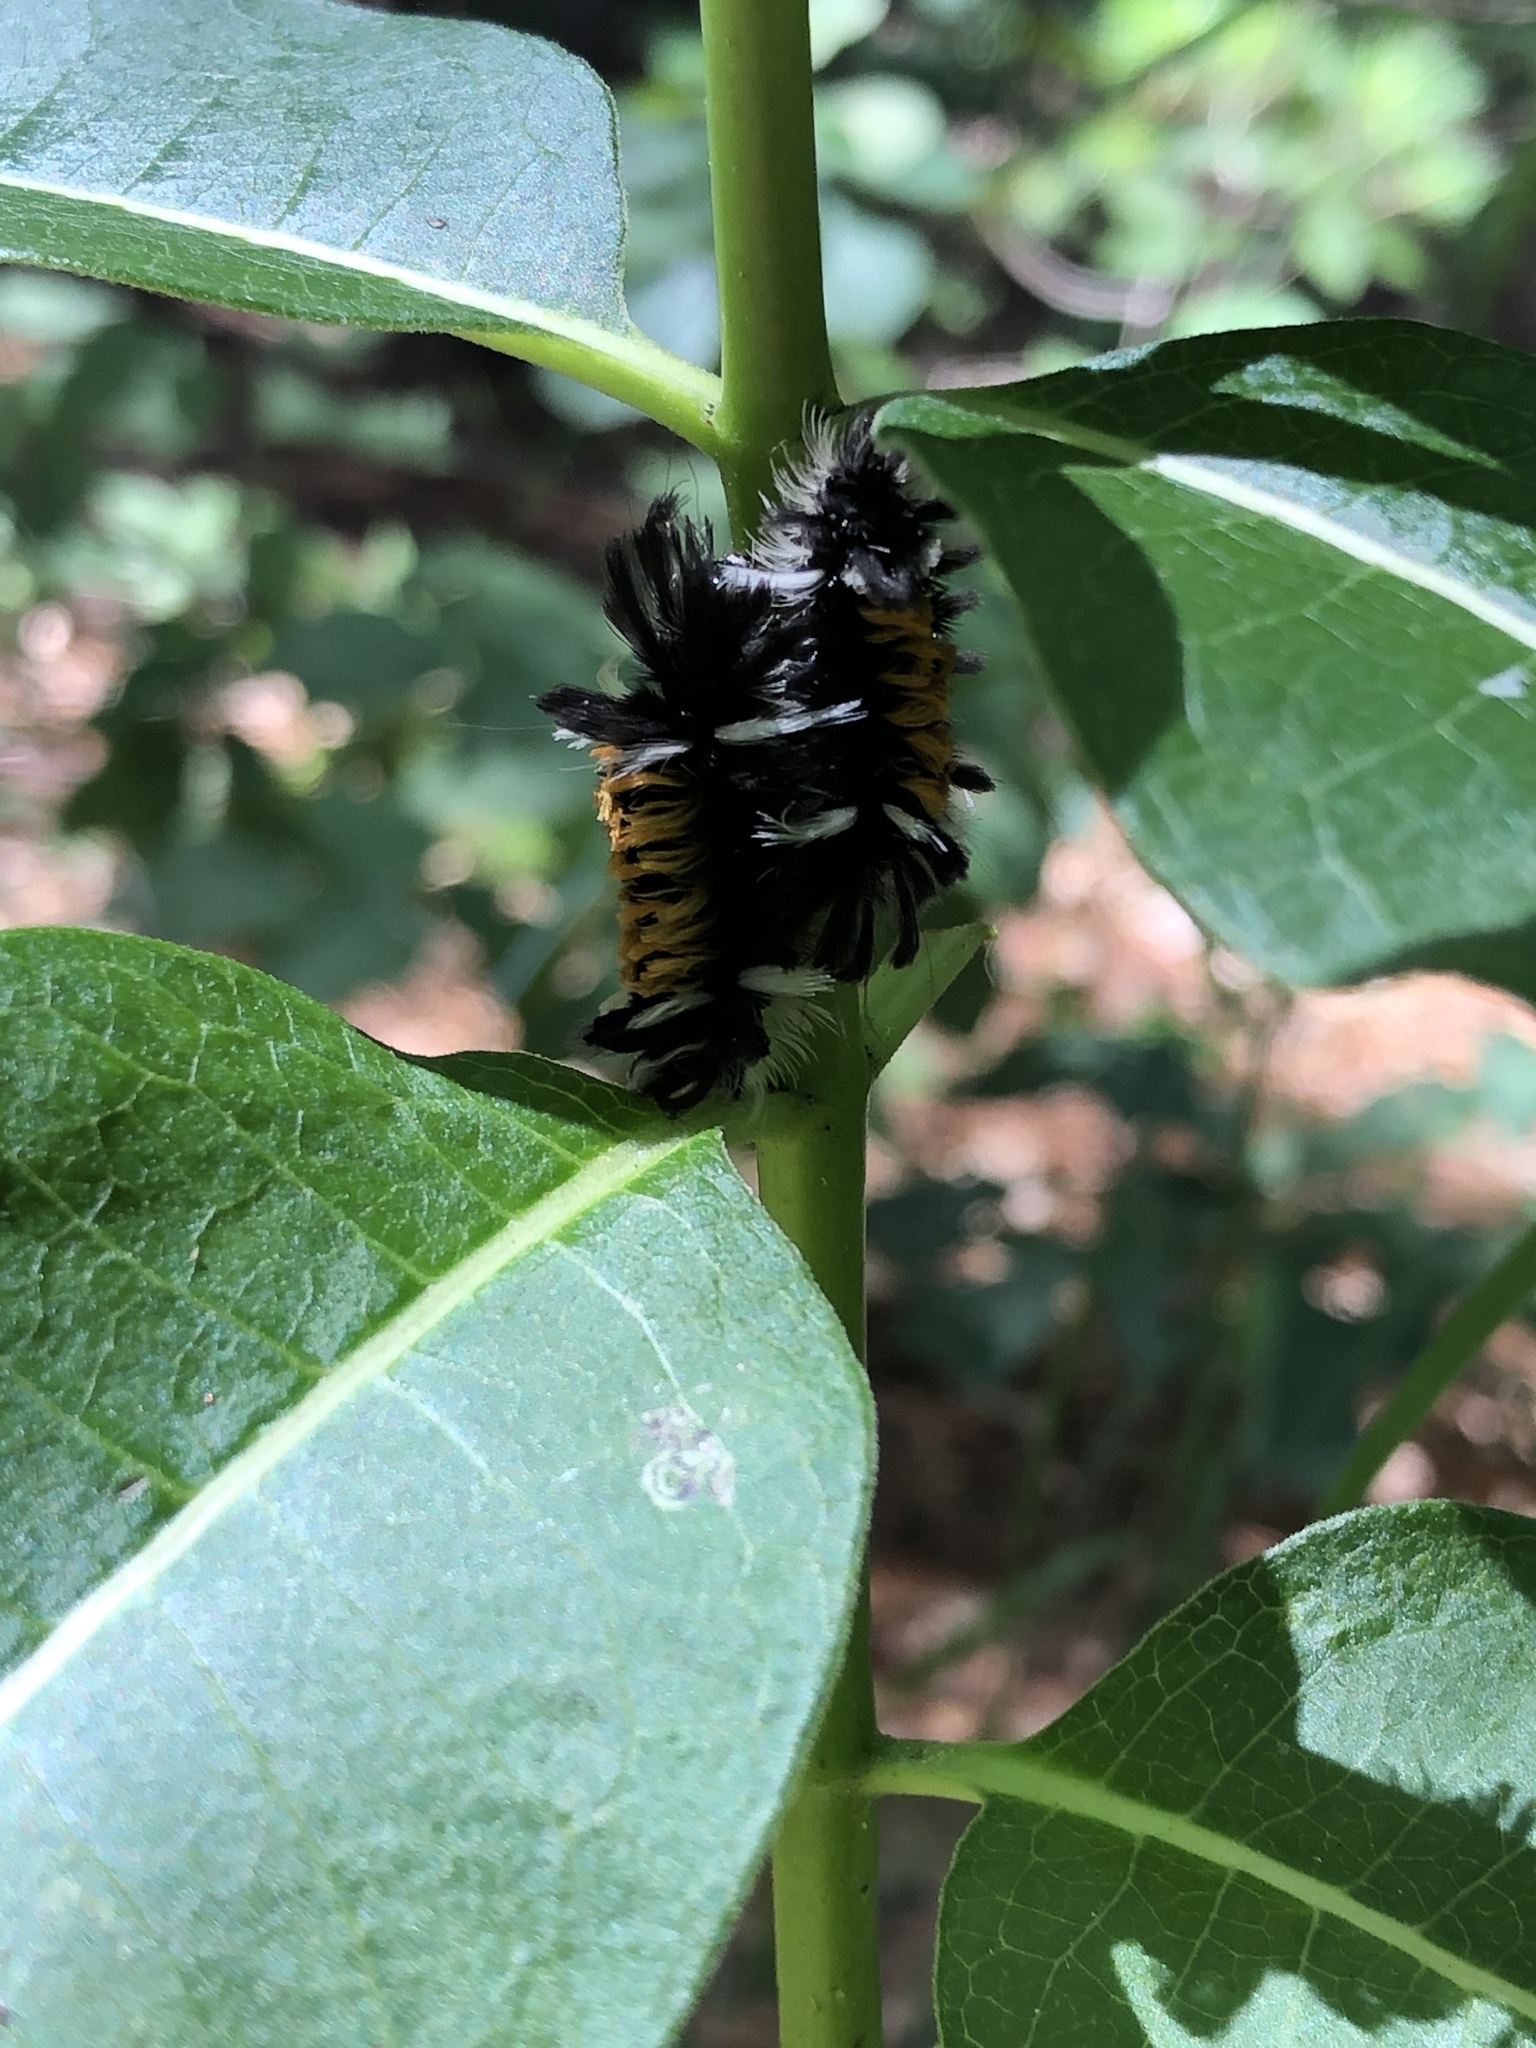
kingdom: Animalia
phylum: Arthropoda
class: Insecta
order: Lepidoptera
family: Erebidae
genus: Euchaetes
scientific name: Euchaetes egle
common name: Milkweed tussock moth
